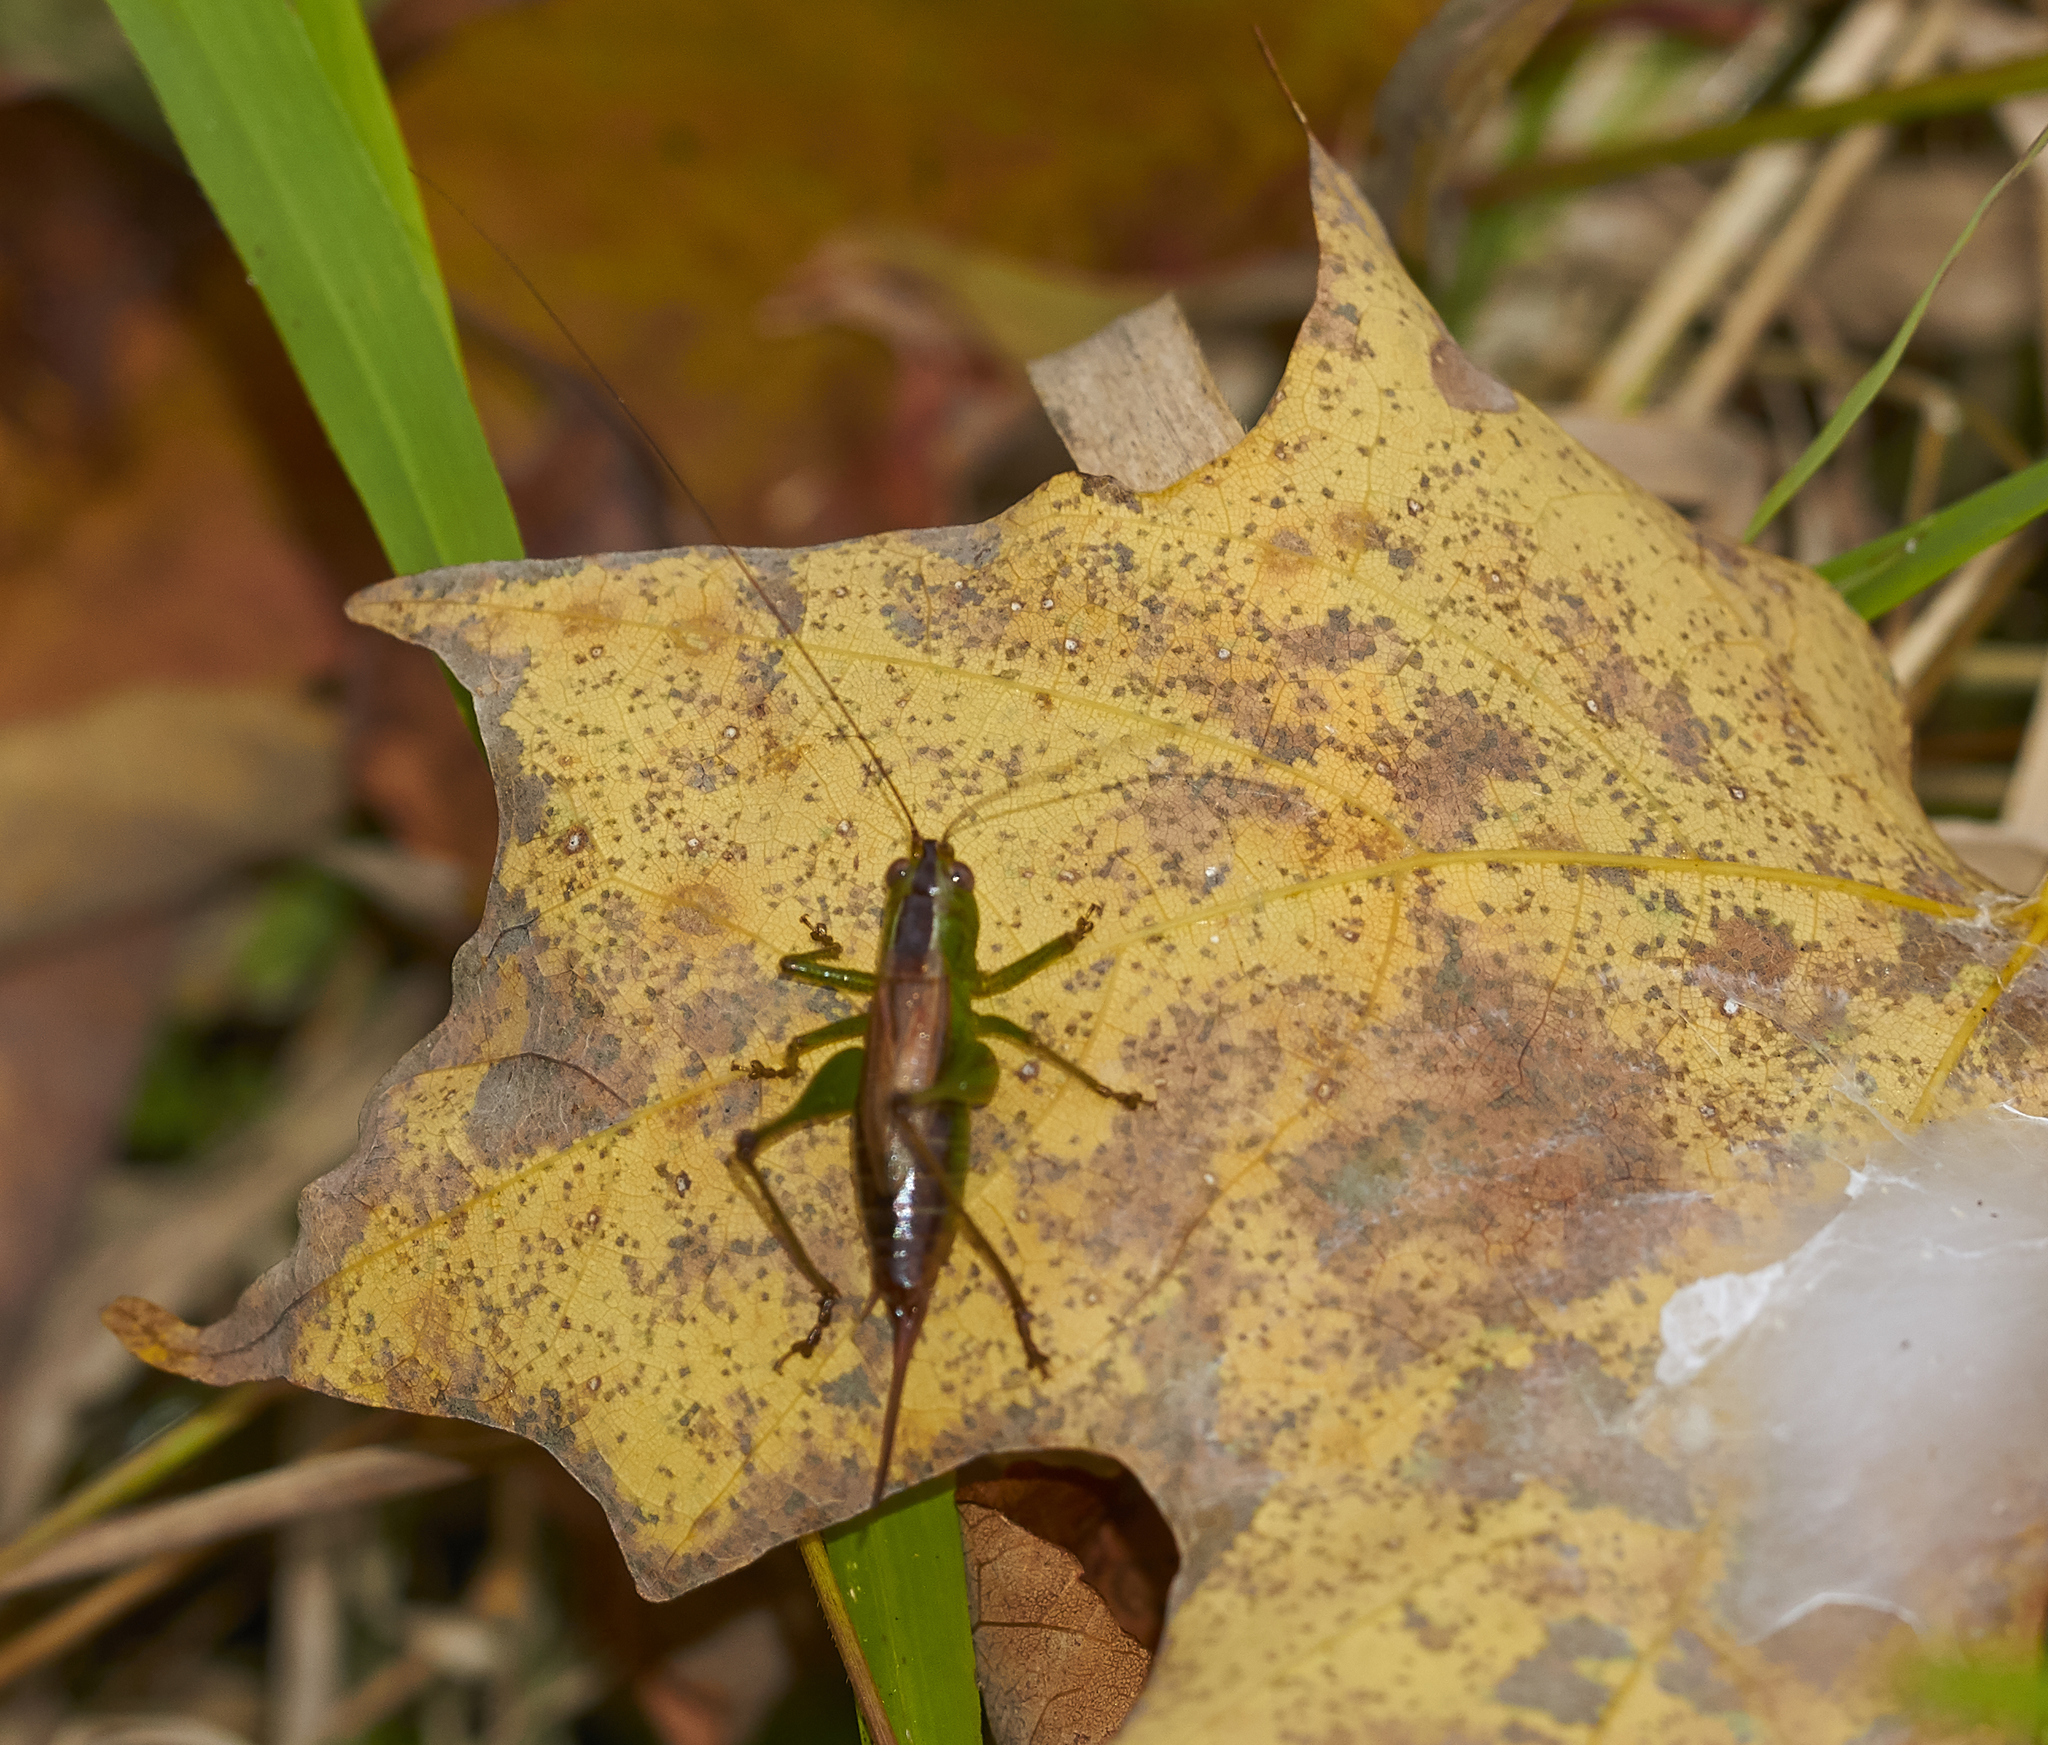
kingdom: Animalia
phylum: Arthropoda
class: Insecta
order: Orthoptera
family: Tettigoniidae
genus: Conocephalus
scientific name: Conocephalus brevipennis
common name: Short-winged meadow katydid
